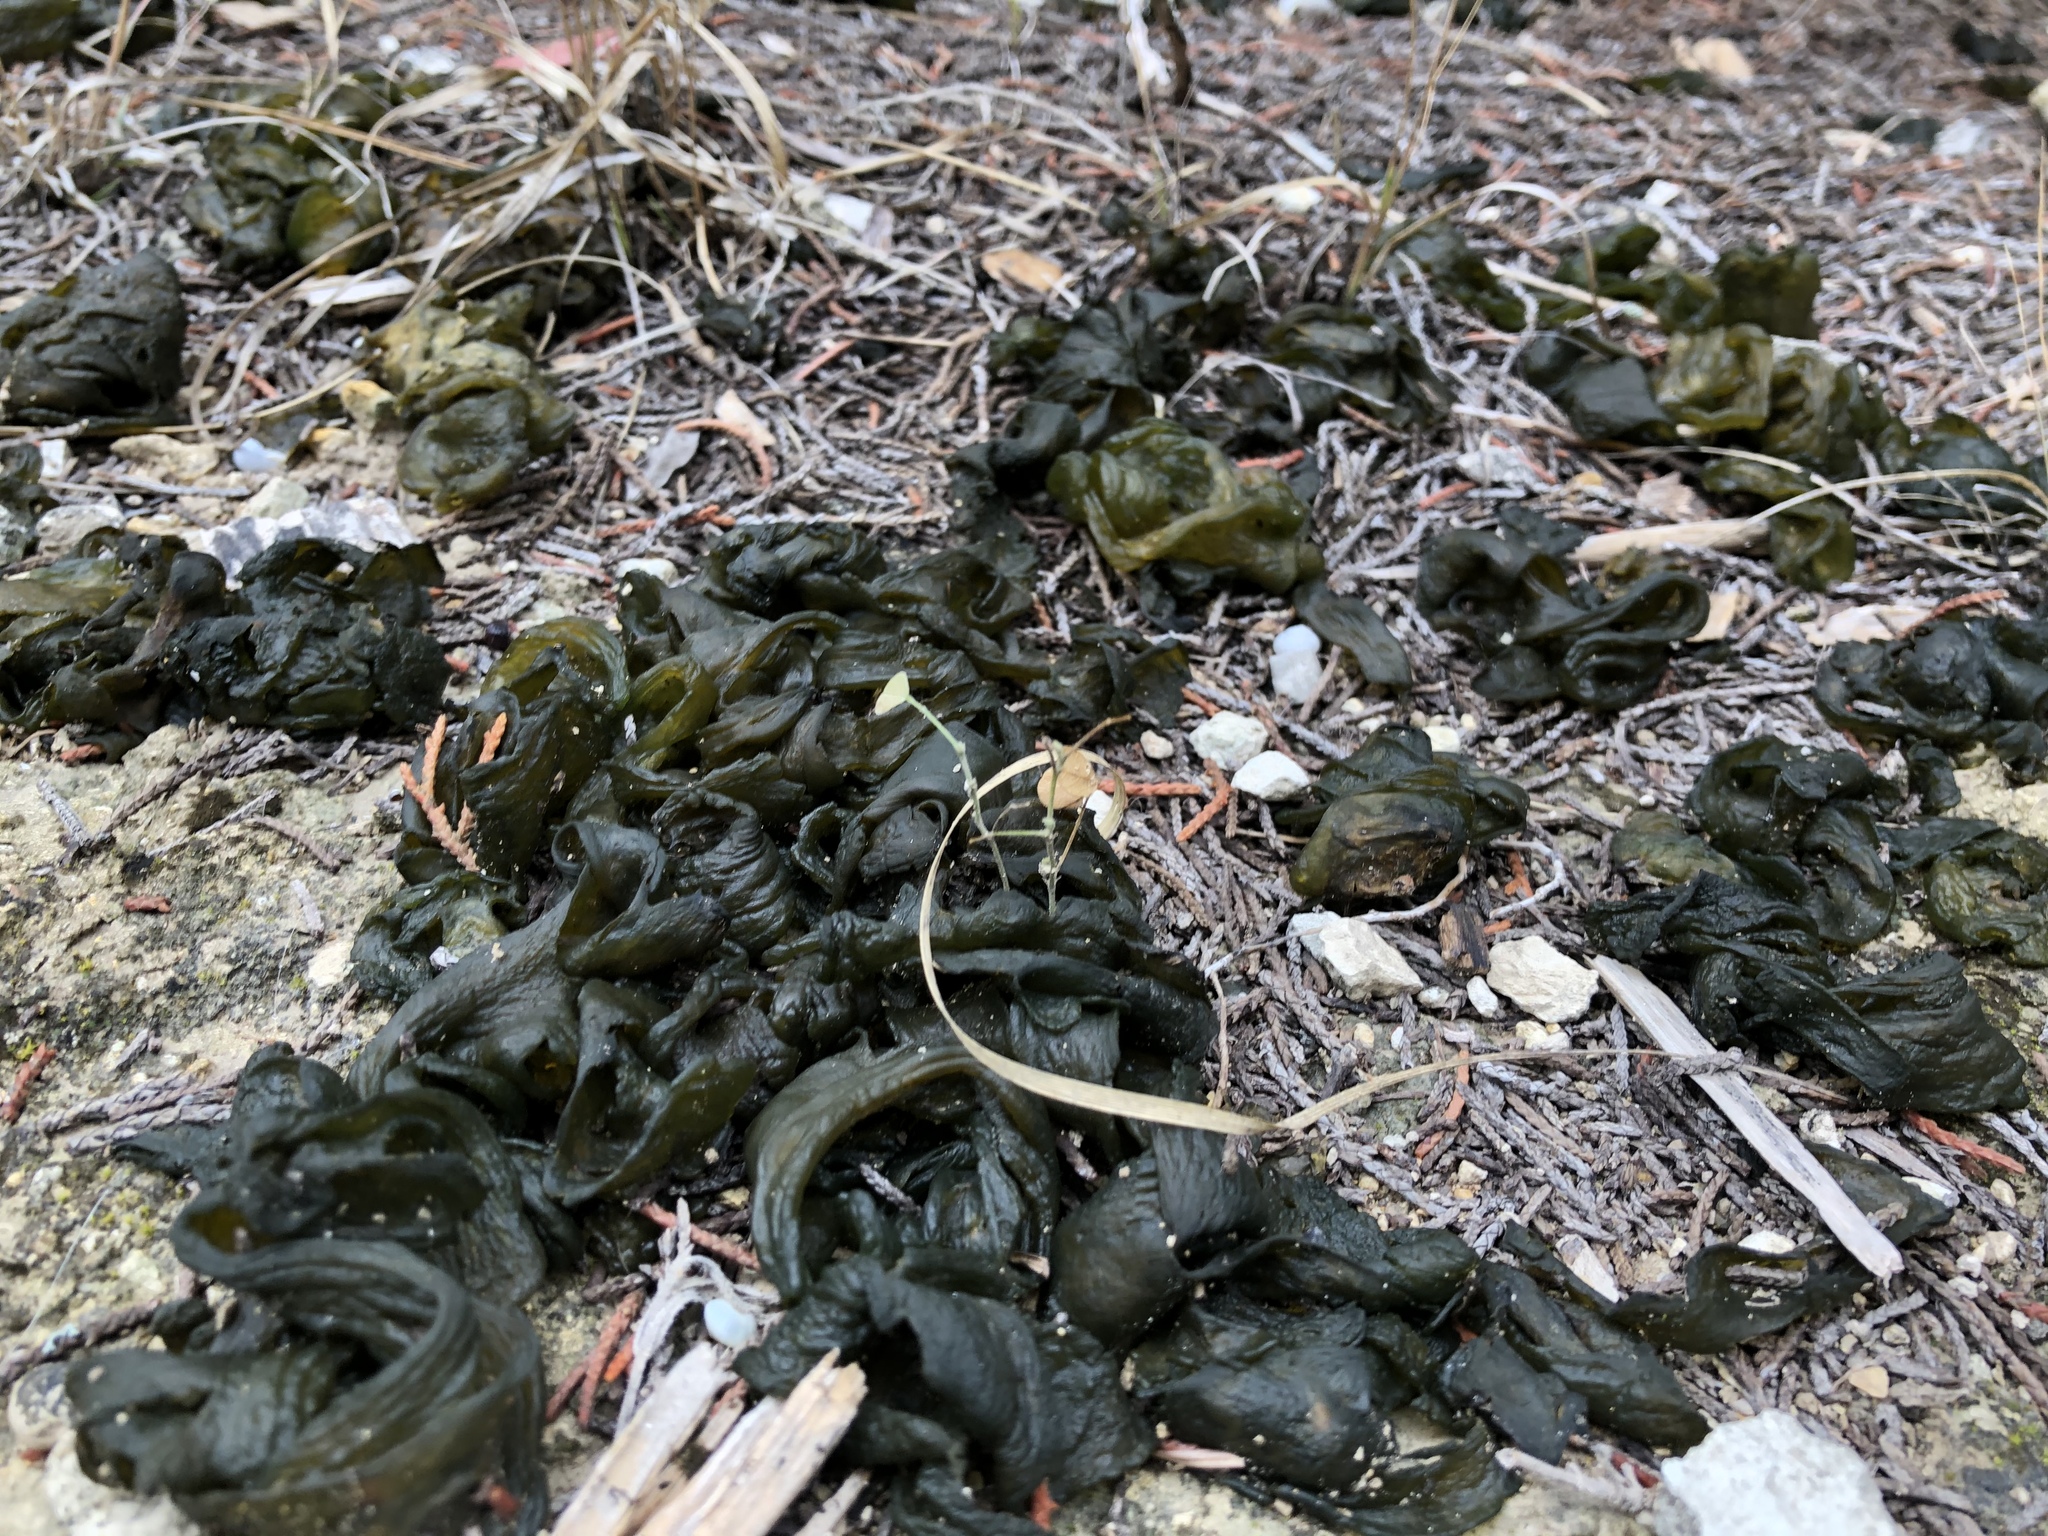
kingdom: Bacteria
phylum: Cyanobacteria
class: Cyanobacteriia
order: Cyanobacteriales
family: Nostocaceae
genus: Nostoc
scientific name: Nostoc commune
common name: Star jelly
